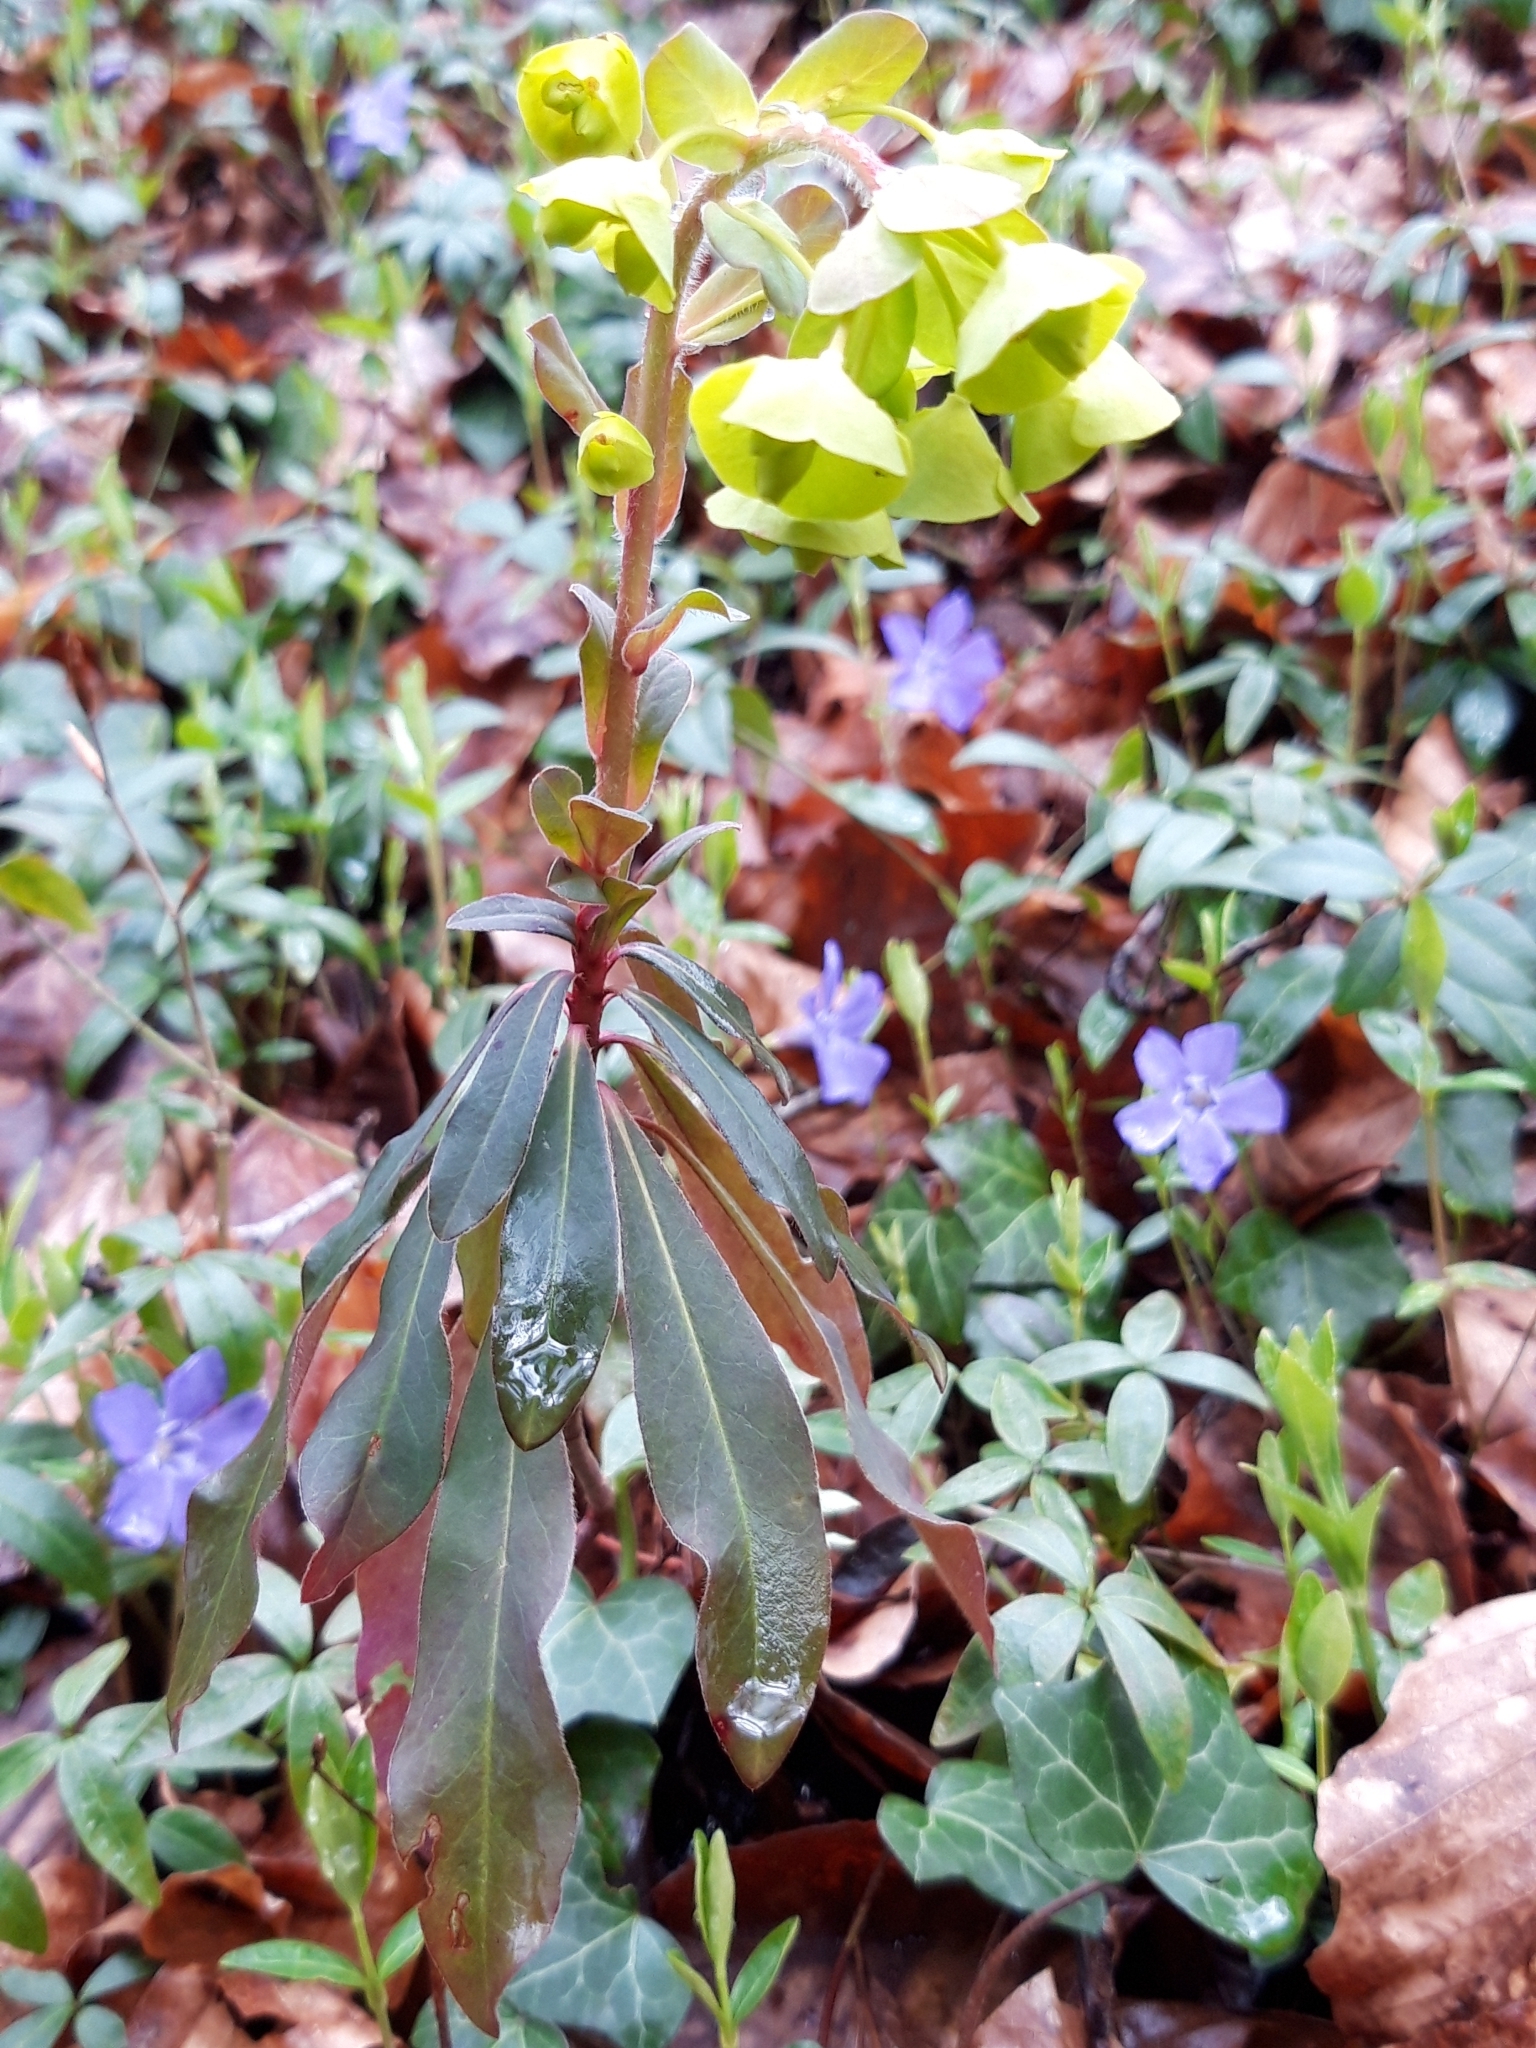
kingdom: Plantae
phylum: Tracheophyta
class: Magnoliopsida
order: Malpighiales
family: Euphorbiaceae
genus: Euphorbia
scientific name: Euphorbia amygdaloides
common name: Wood spurge
